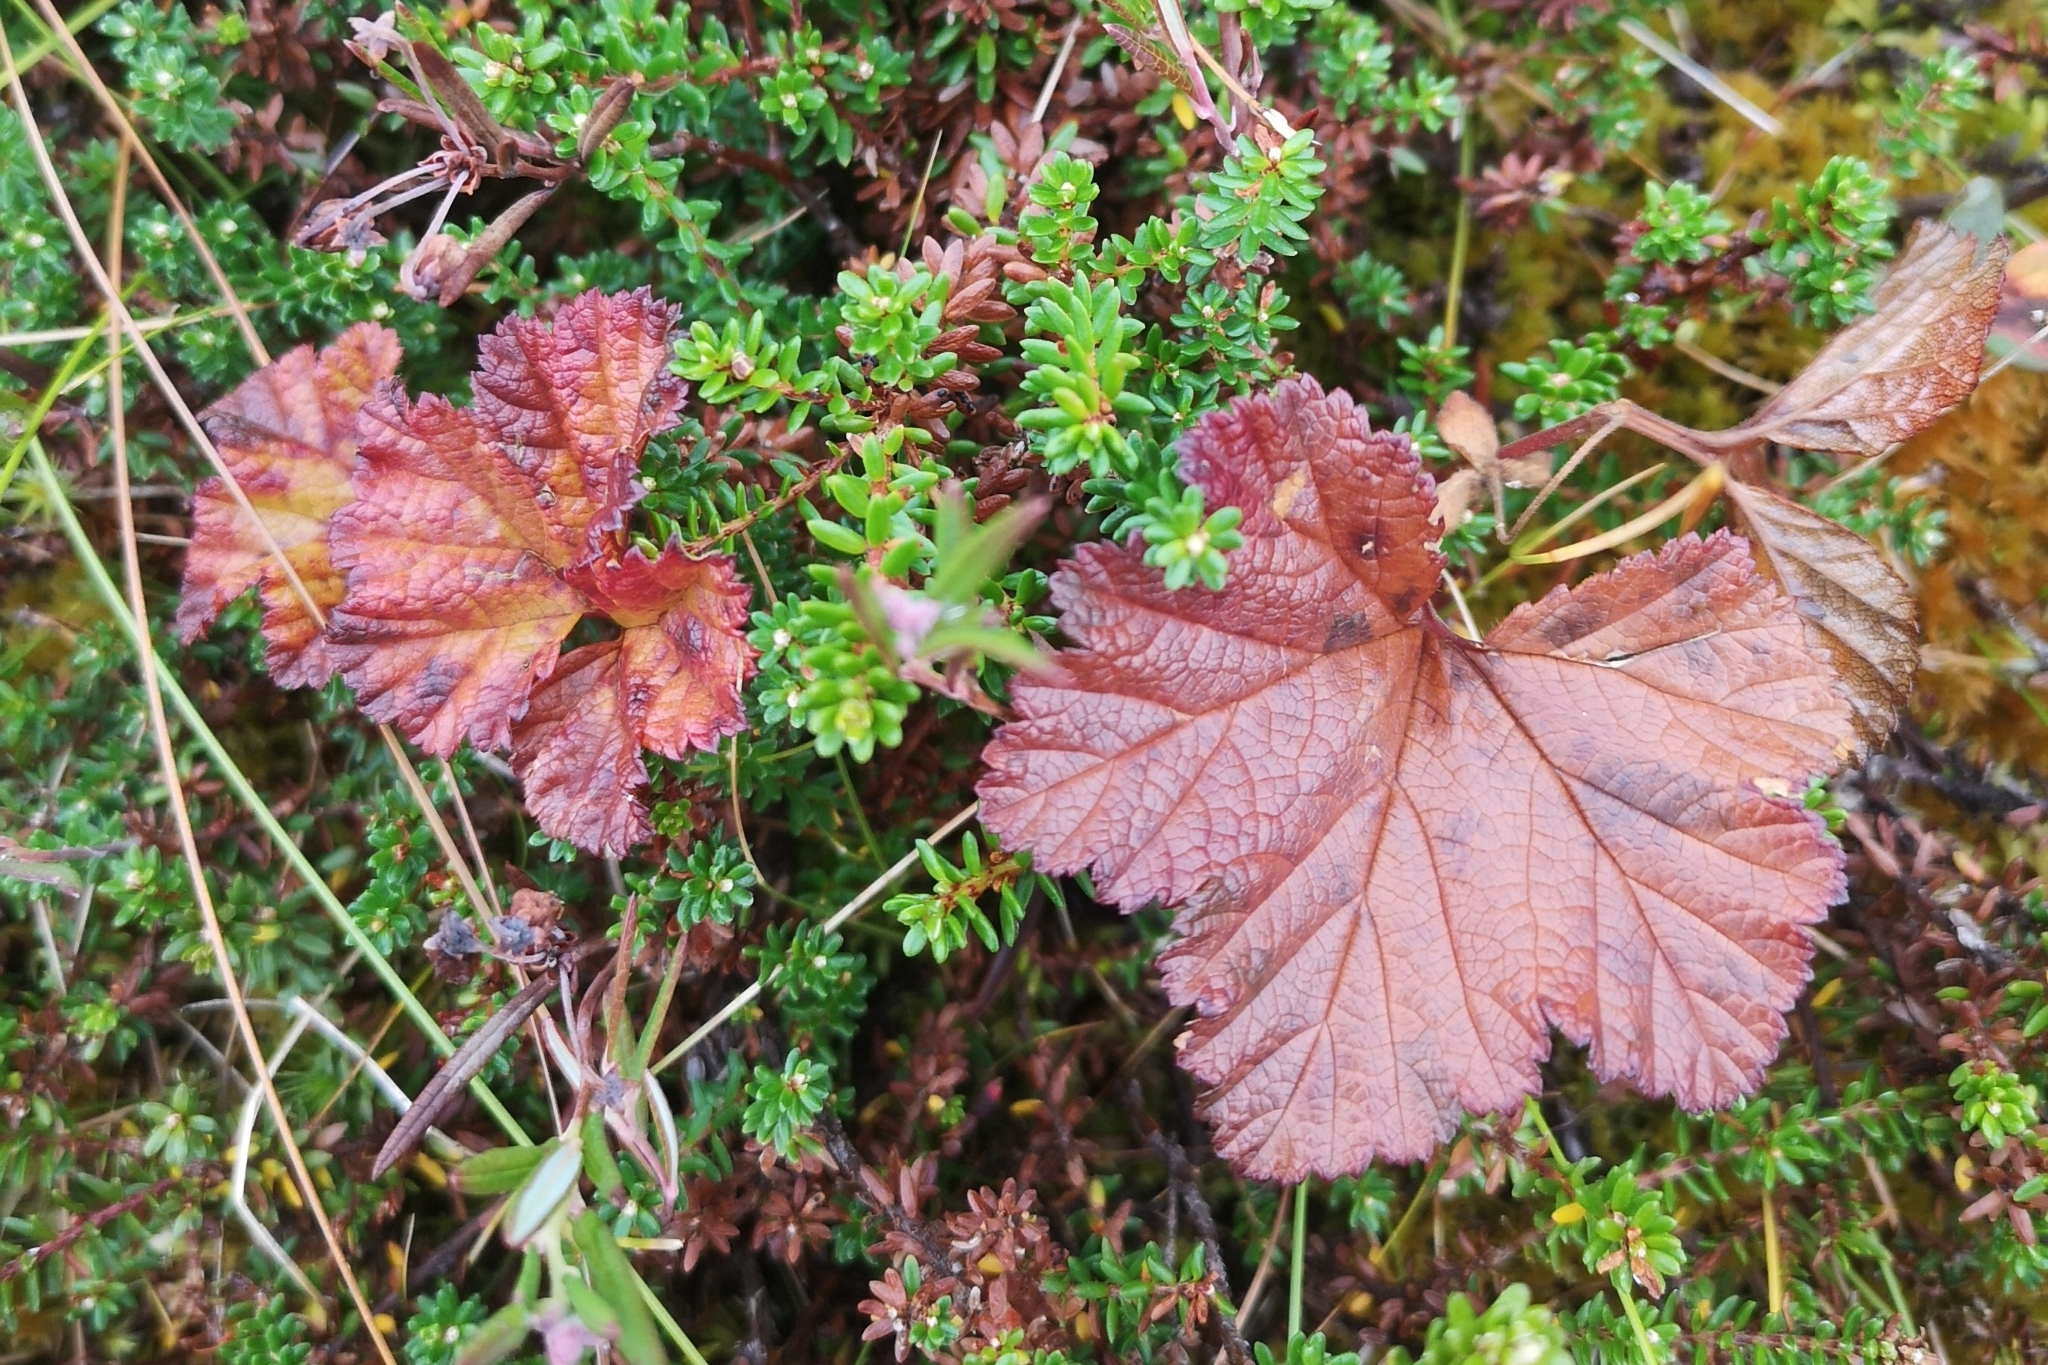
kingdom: Plantae
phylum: Tracheophyta
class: Magnoliopsida
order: Rosales
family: Rosaceae
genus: Rubus
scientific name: Rubus chamaemorus
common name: Cloudberry
